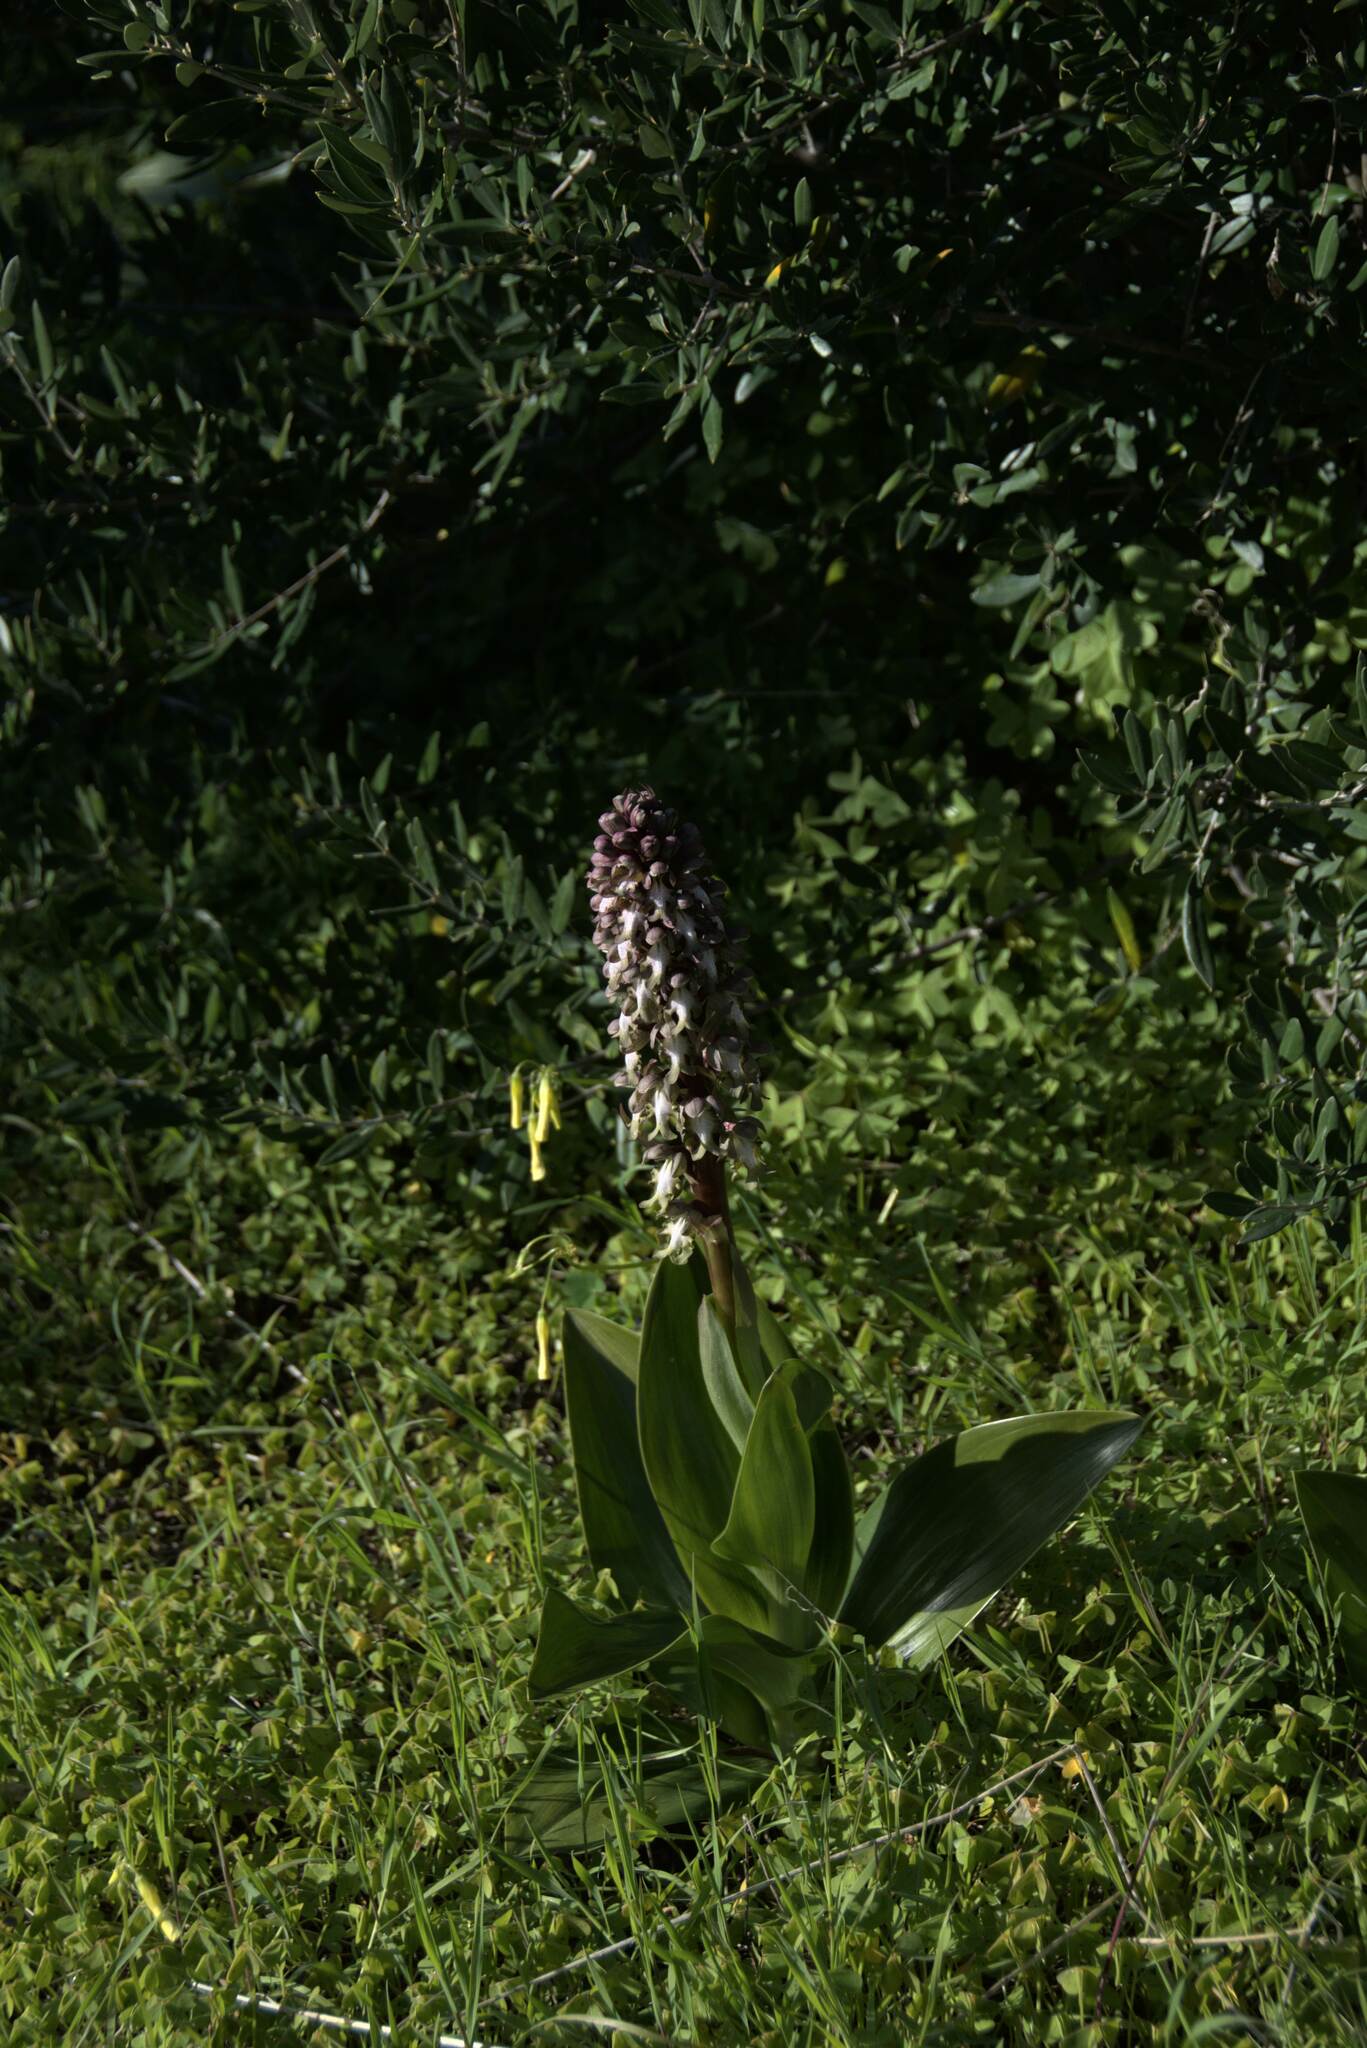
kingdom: Plantae
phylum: Tracheophyta
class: Liliopsida
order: Asparagales
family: Orchidaceae
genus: Himantoglossum
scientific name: Himantoglossum robertianum
